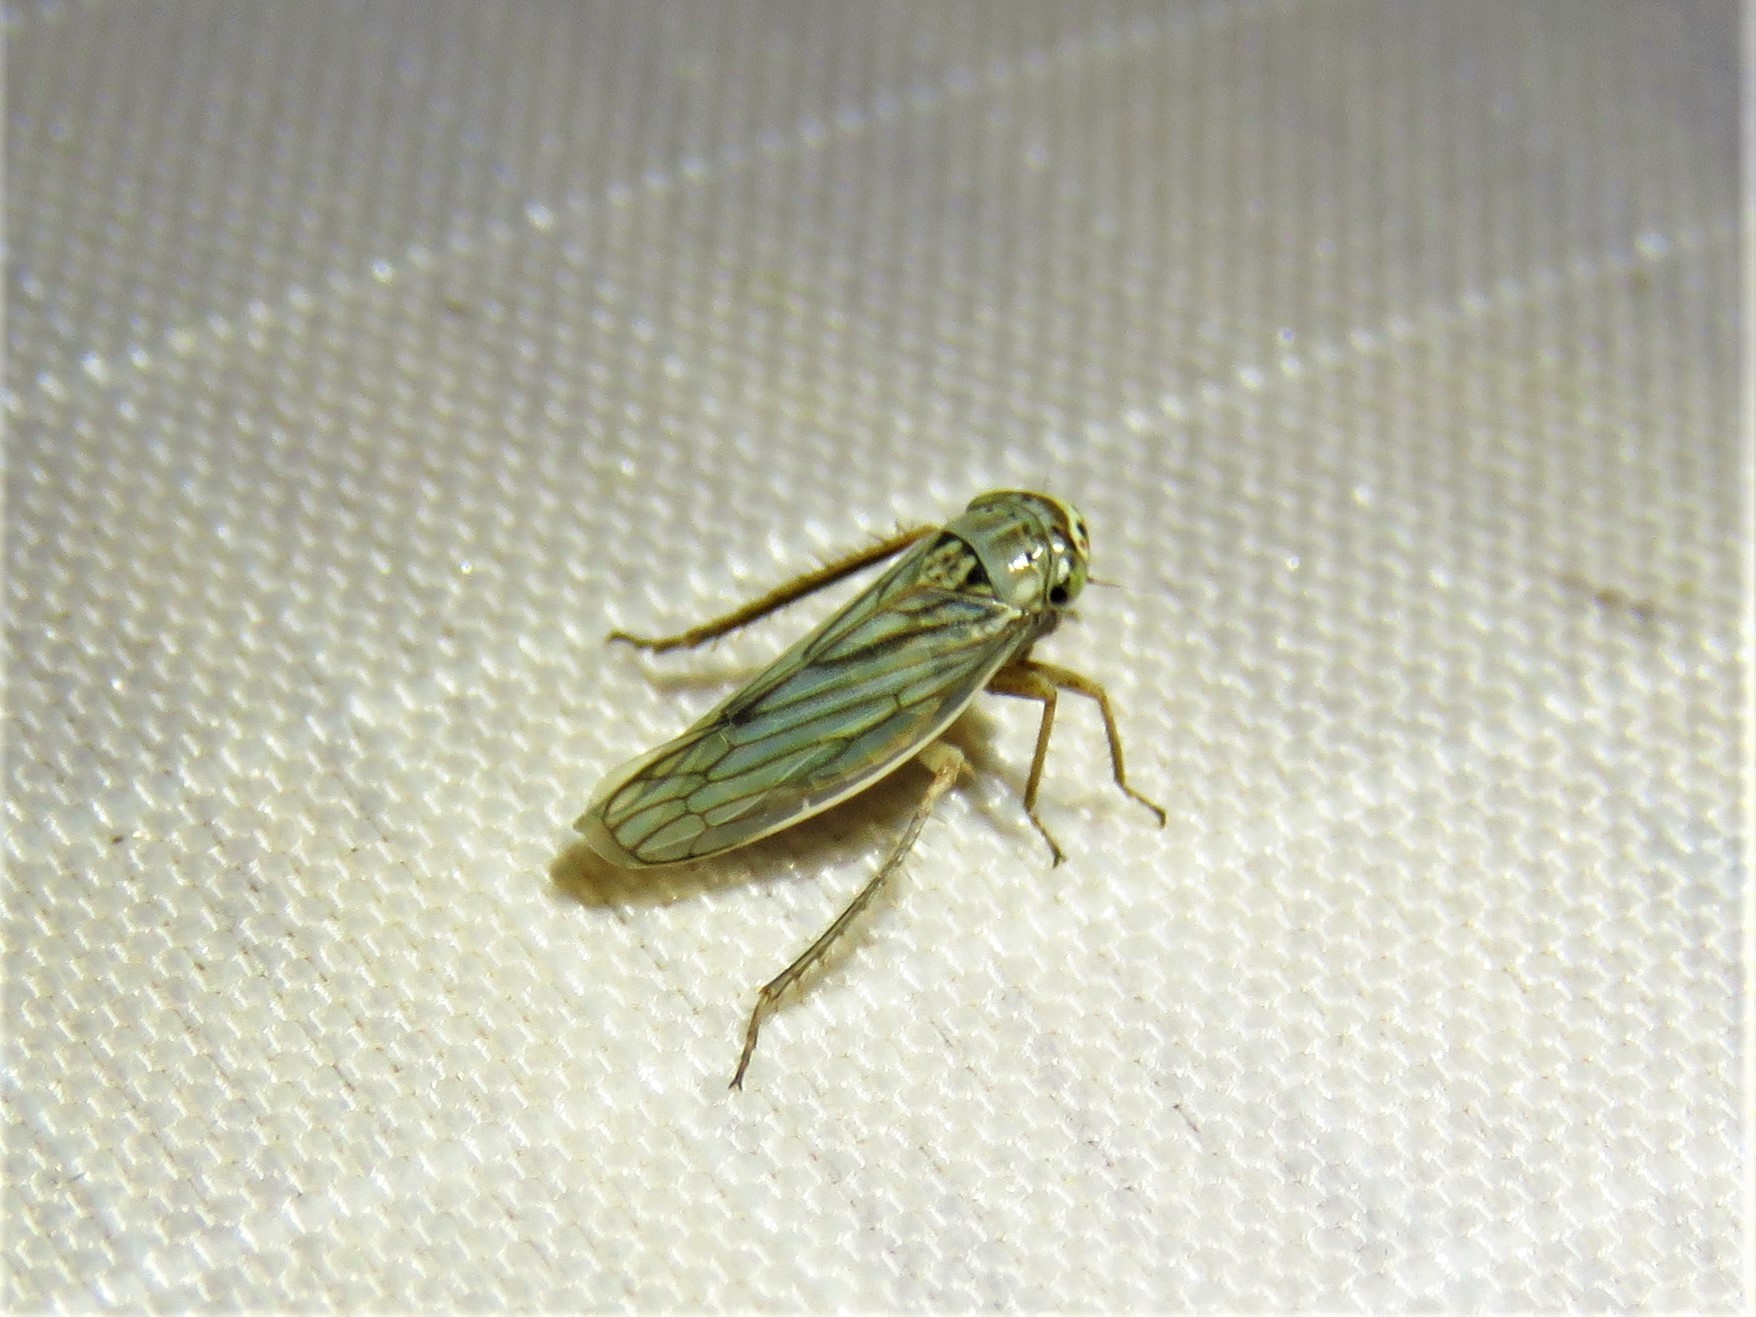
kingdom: Animalia
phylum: Arthropoda
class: Insecta
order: Hemiptera
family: Cicadellidae
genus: Exitianus
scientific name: Exitianus exitiosus
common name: Gray lawn leafhopper
